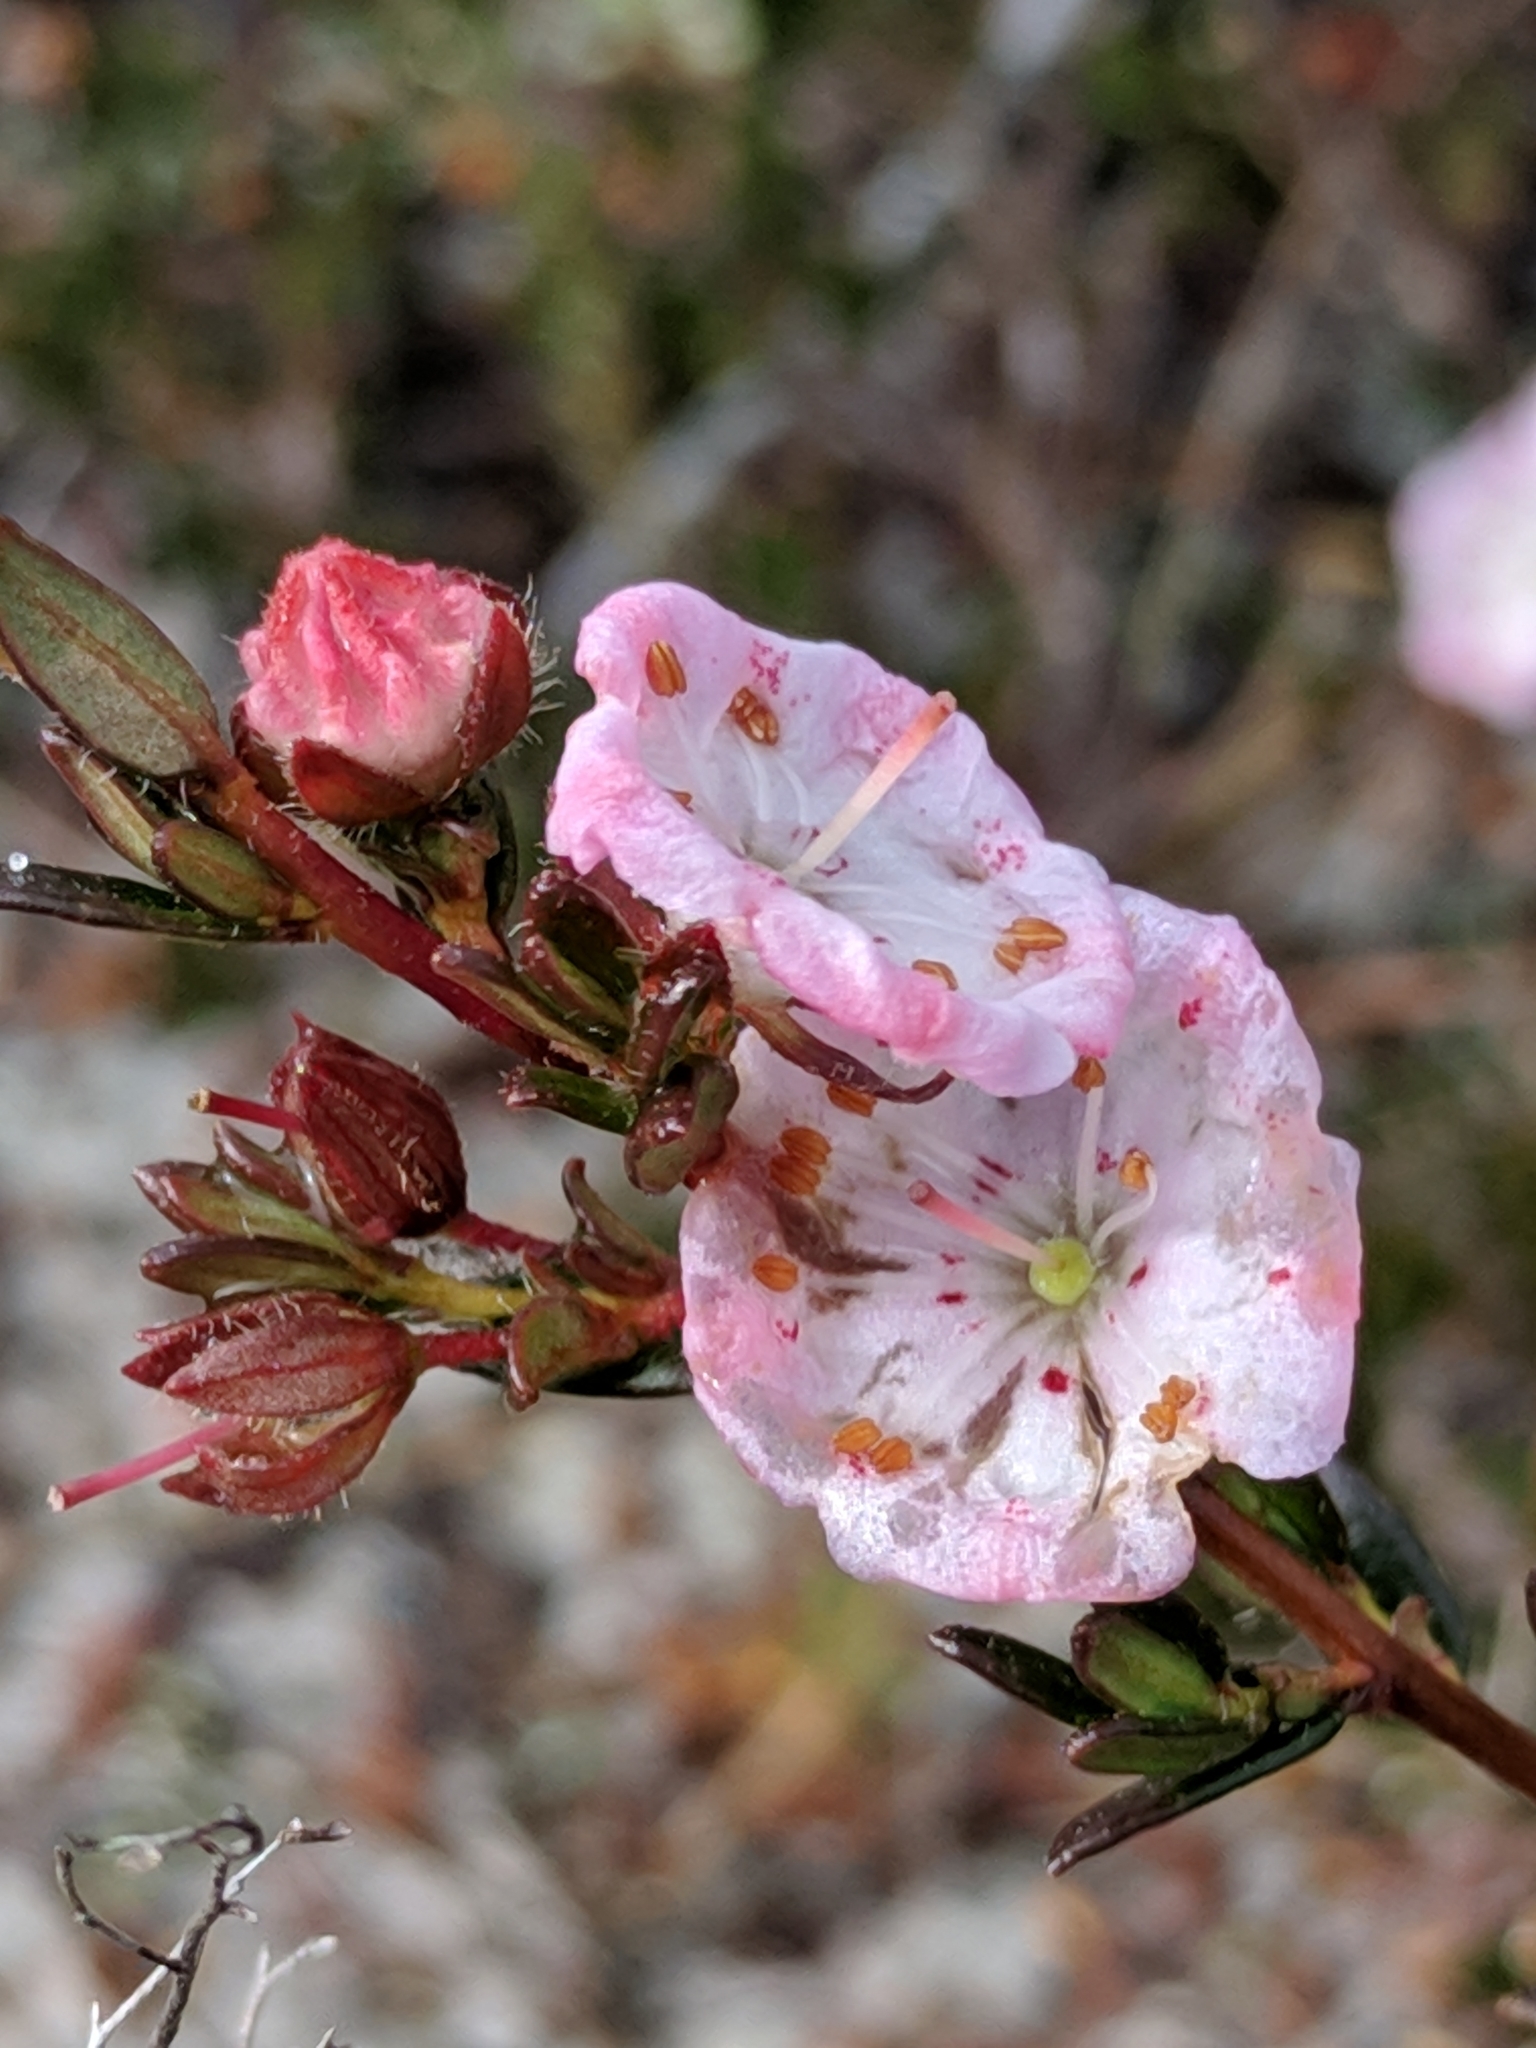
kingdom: Plantae
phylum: Tracheophyta
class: Magnoliopsida
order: Ericales
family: Ericaceae
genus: Kalmia
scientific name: Kalmia hirsuta
